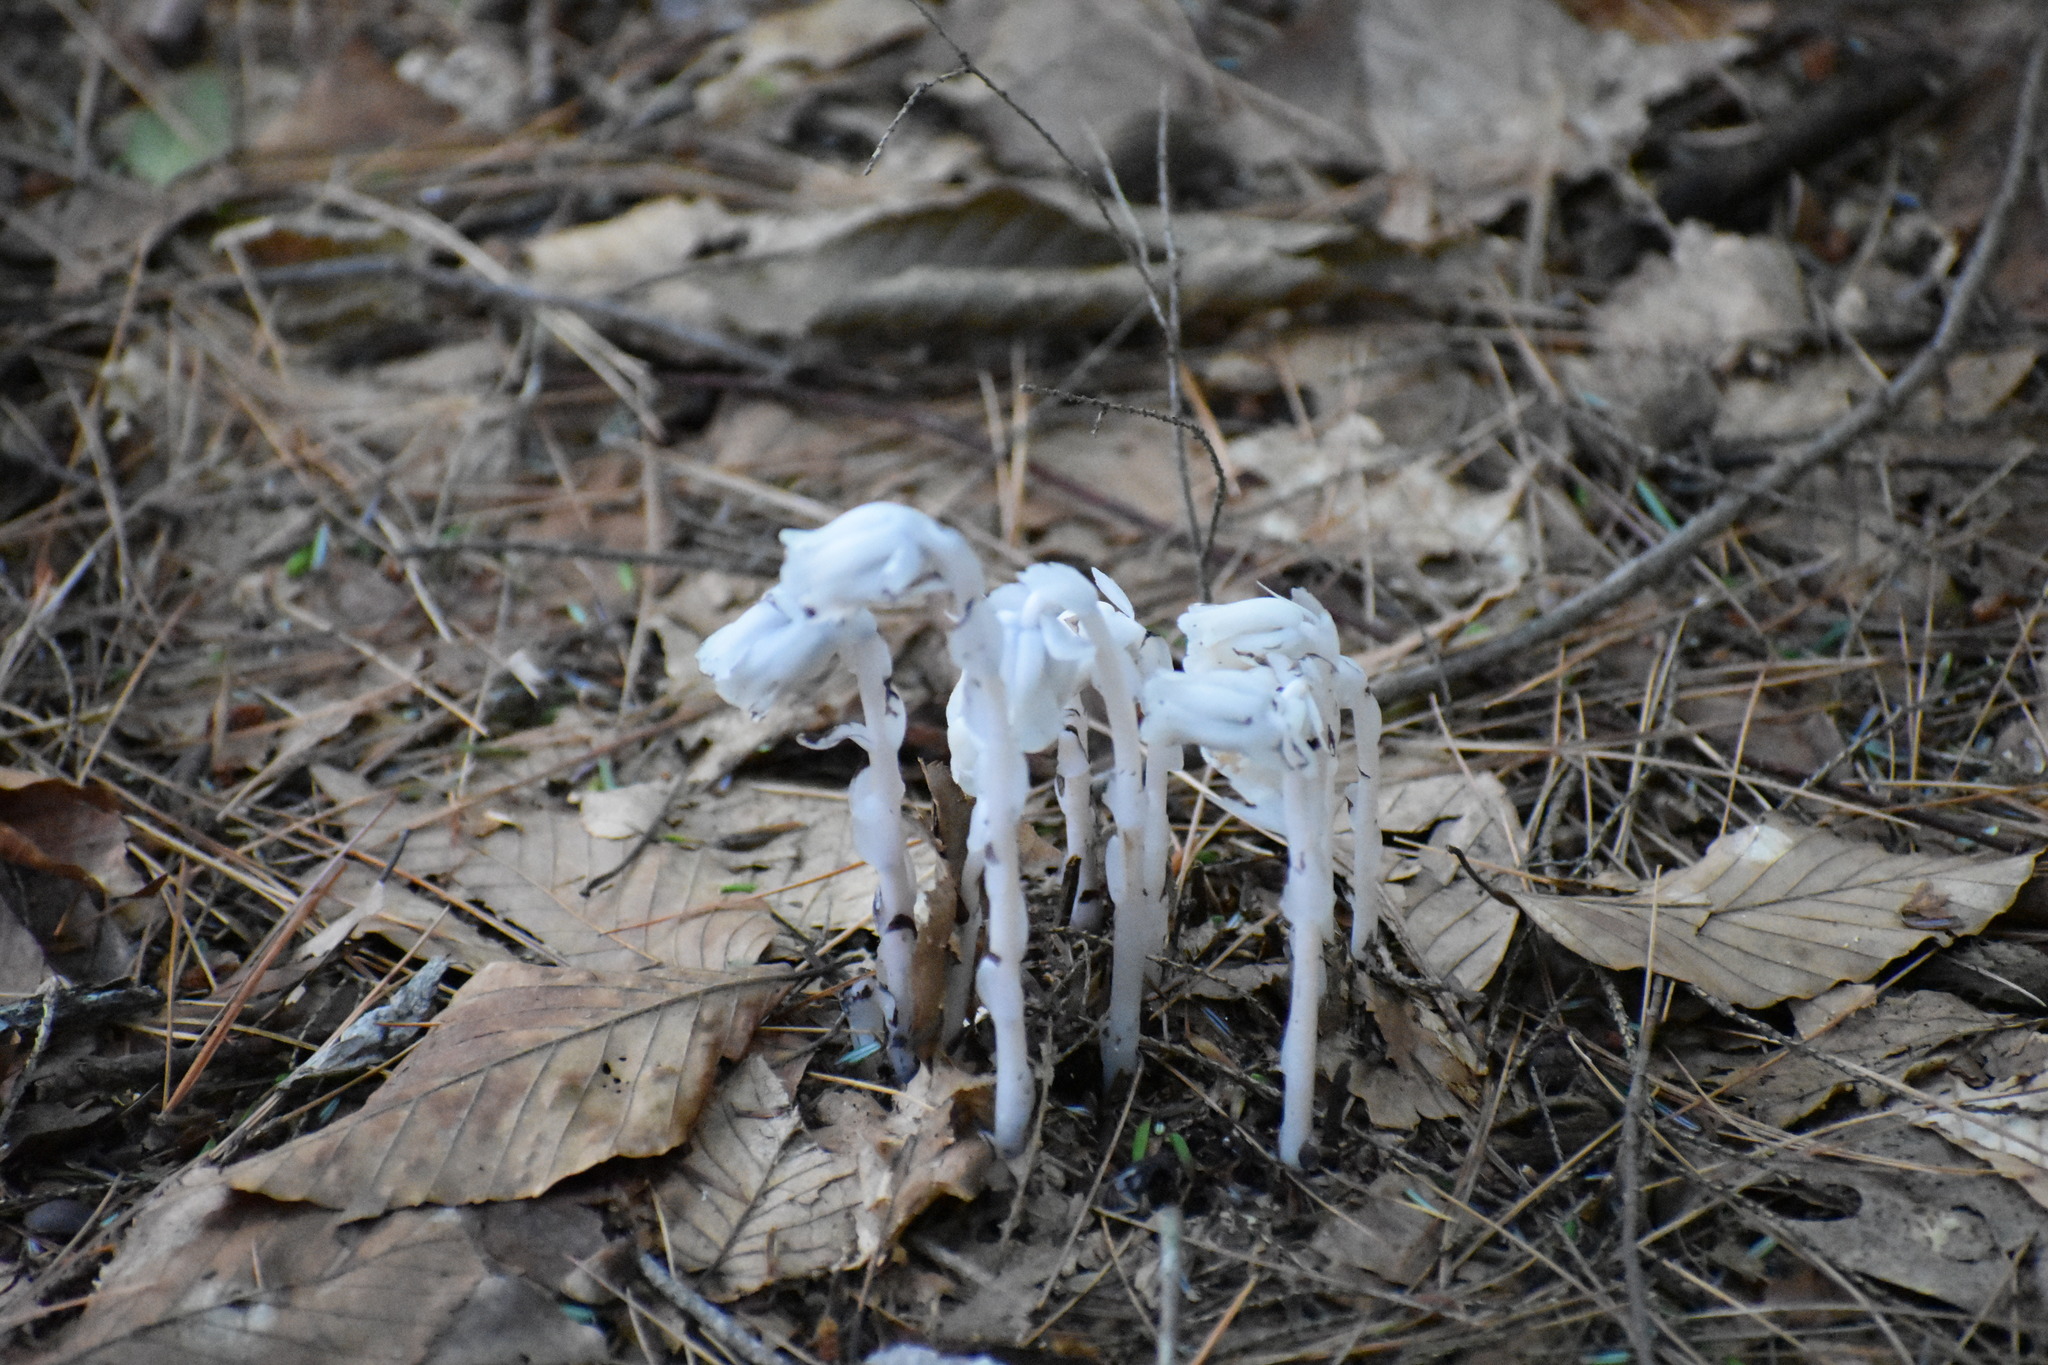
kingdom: Plantae
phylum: Tracheophyta
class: Magnoliopsida
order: Ericales
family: Ericaceae
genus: Monotropa
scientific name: Monotropa uniflora
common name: Convulsion root
